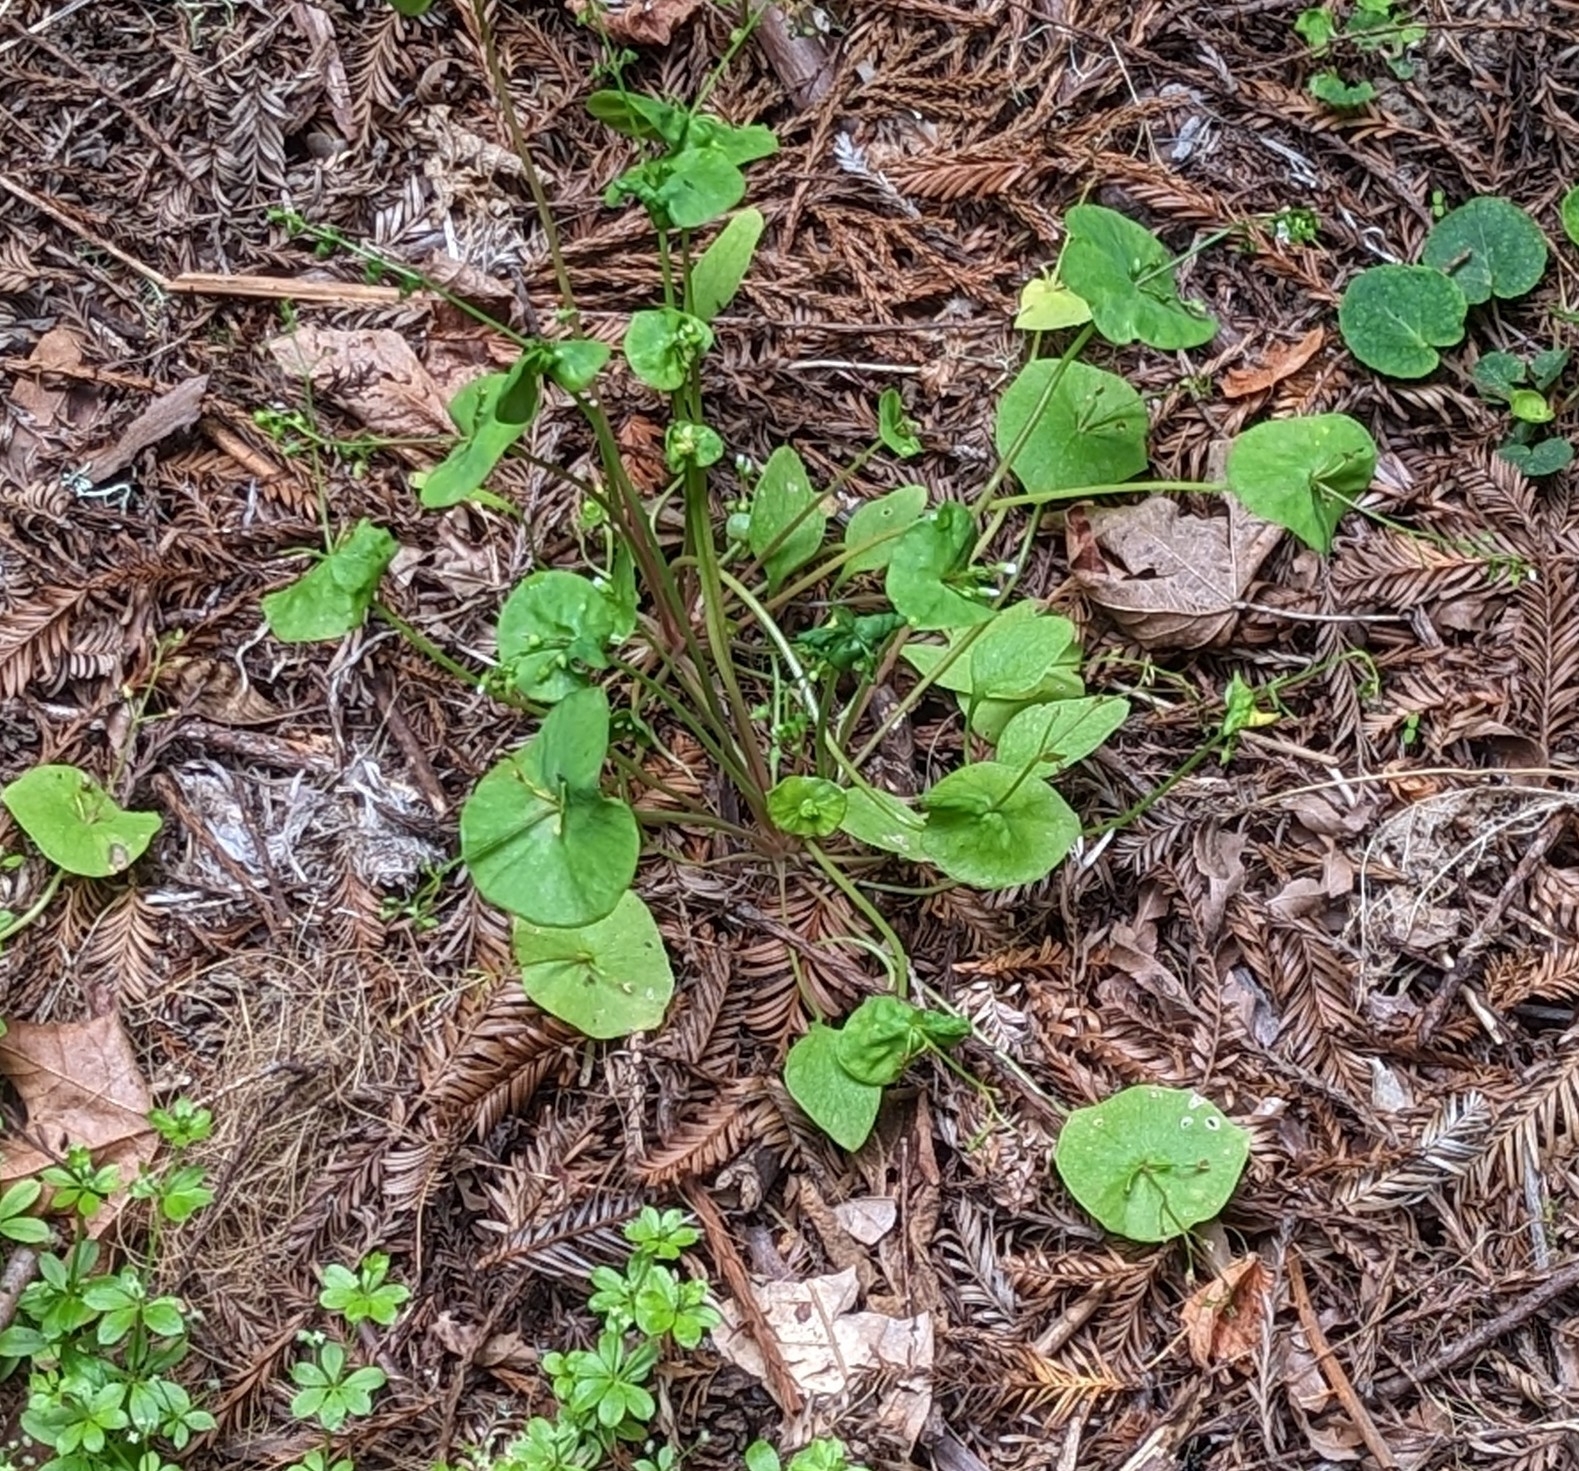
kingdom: Plantae
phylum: Tracheophyta
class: Magnoliopsida
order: Caryophyllales
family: Montiaceae
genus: Claytonia
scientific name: Claytonia perfoliata
